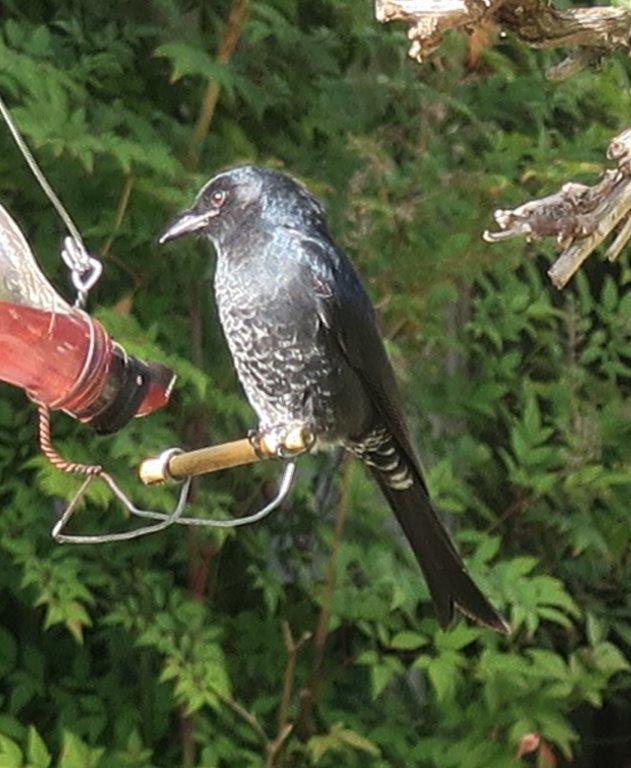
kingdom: Animalia
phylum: Chordata
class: Aves
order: Passeriformes
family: Dicruridae
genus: Dicrurus
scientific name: Dicrurus adsimilis
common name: Fork-tailed drongo
